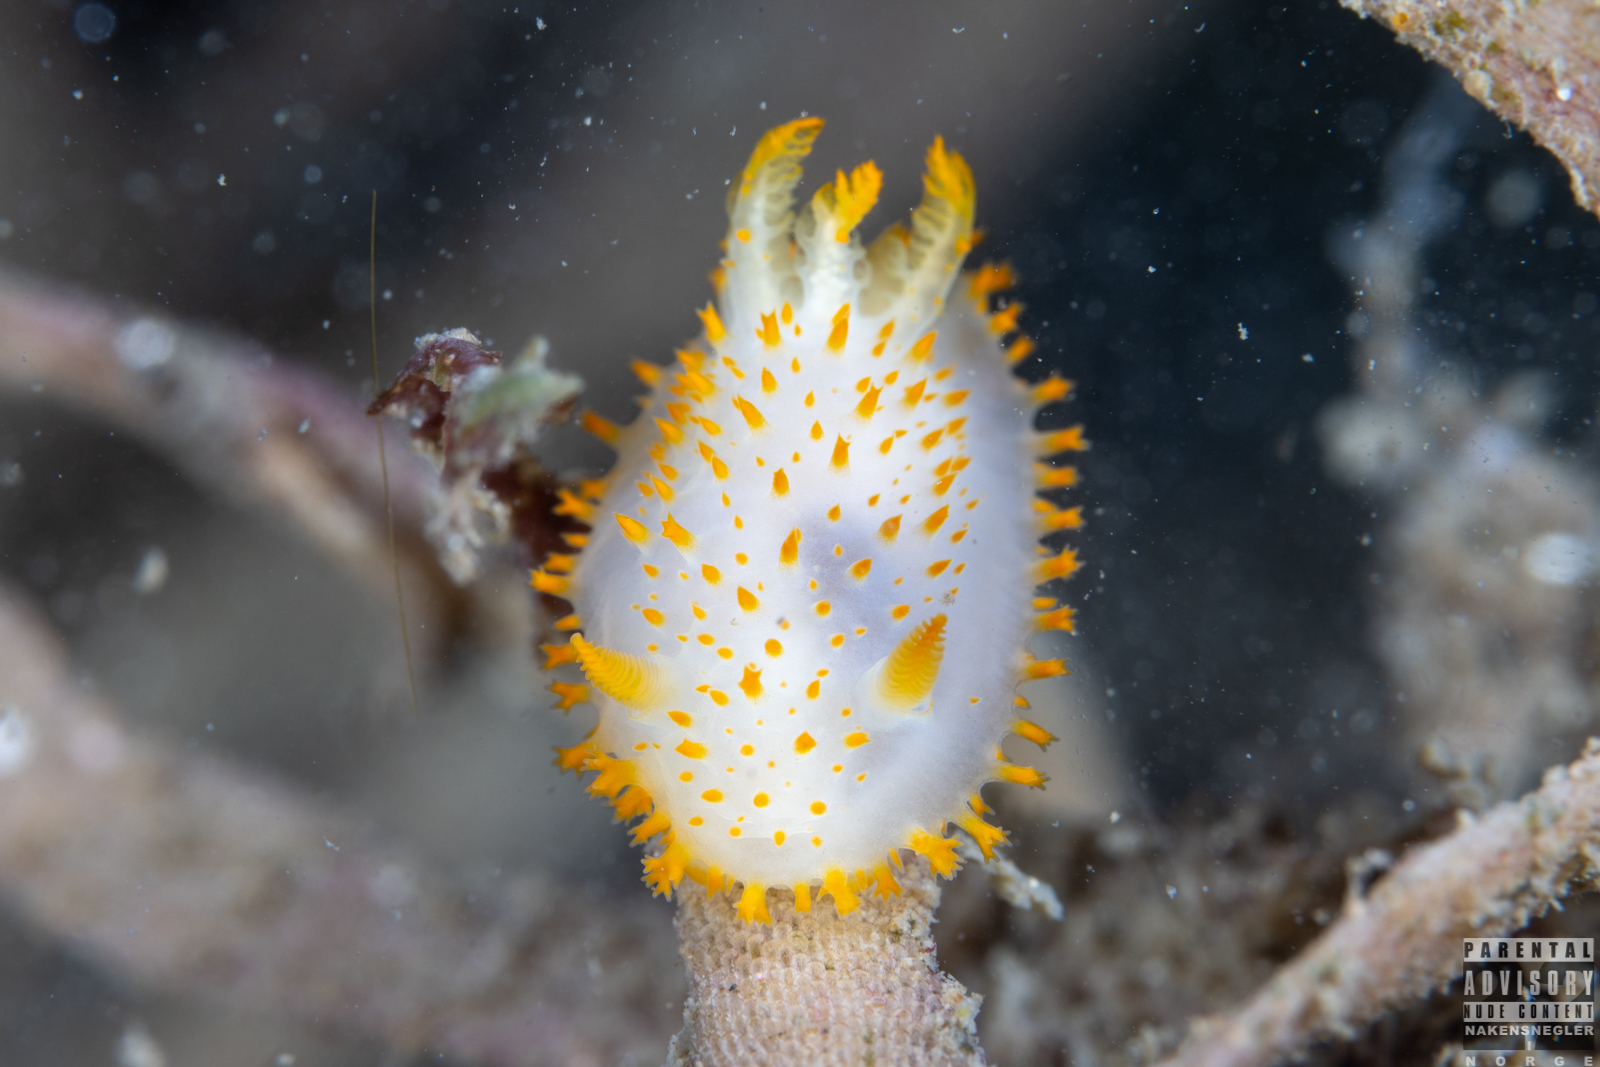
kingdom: Animalia
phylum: Mollusca
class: Gastropoda
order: Nudibranchia
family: Polyceridae
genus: Crimora
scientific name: Crimora papillata
